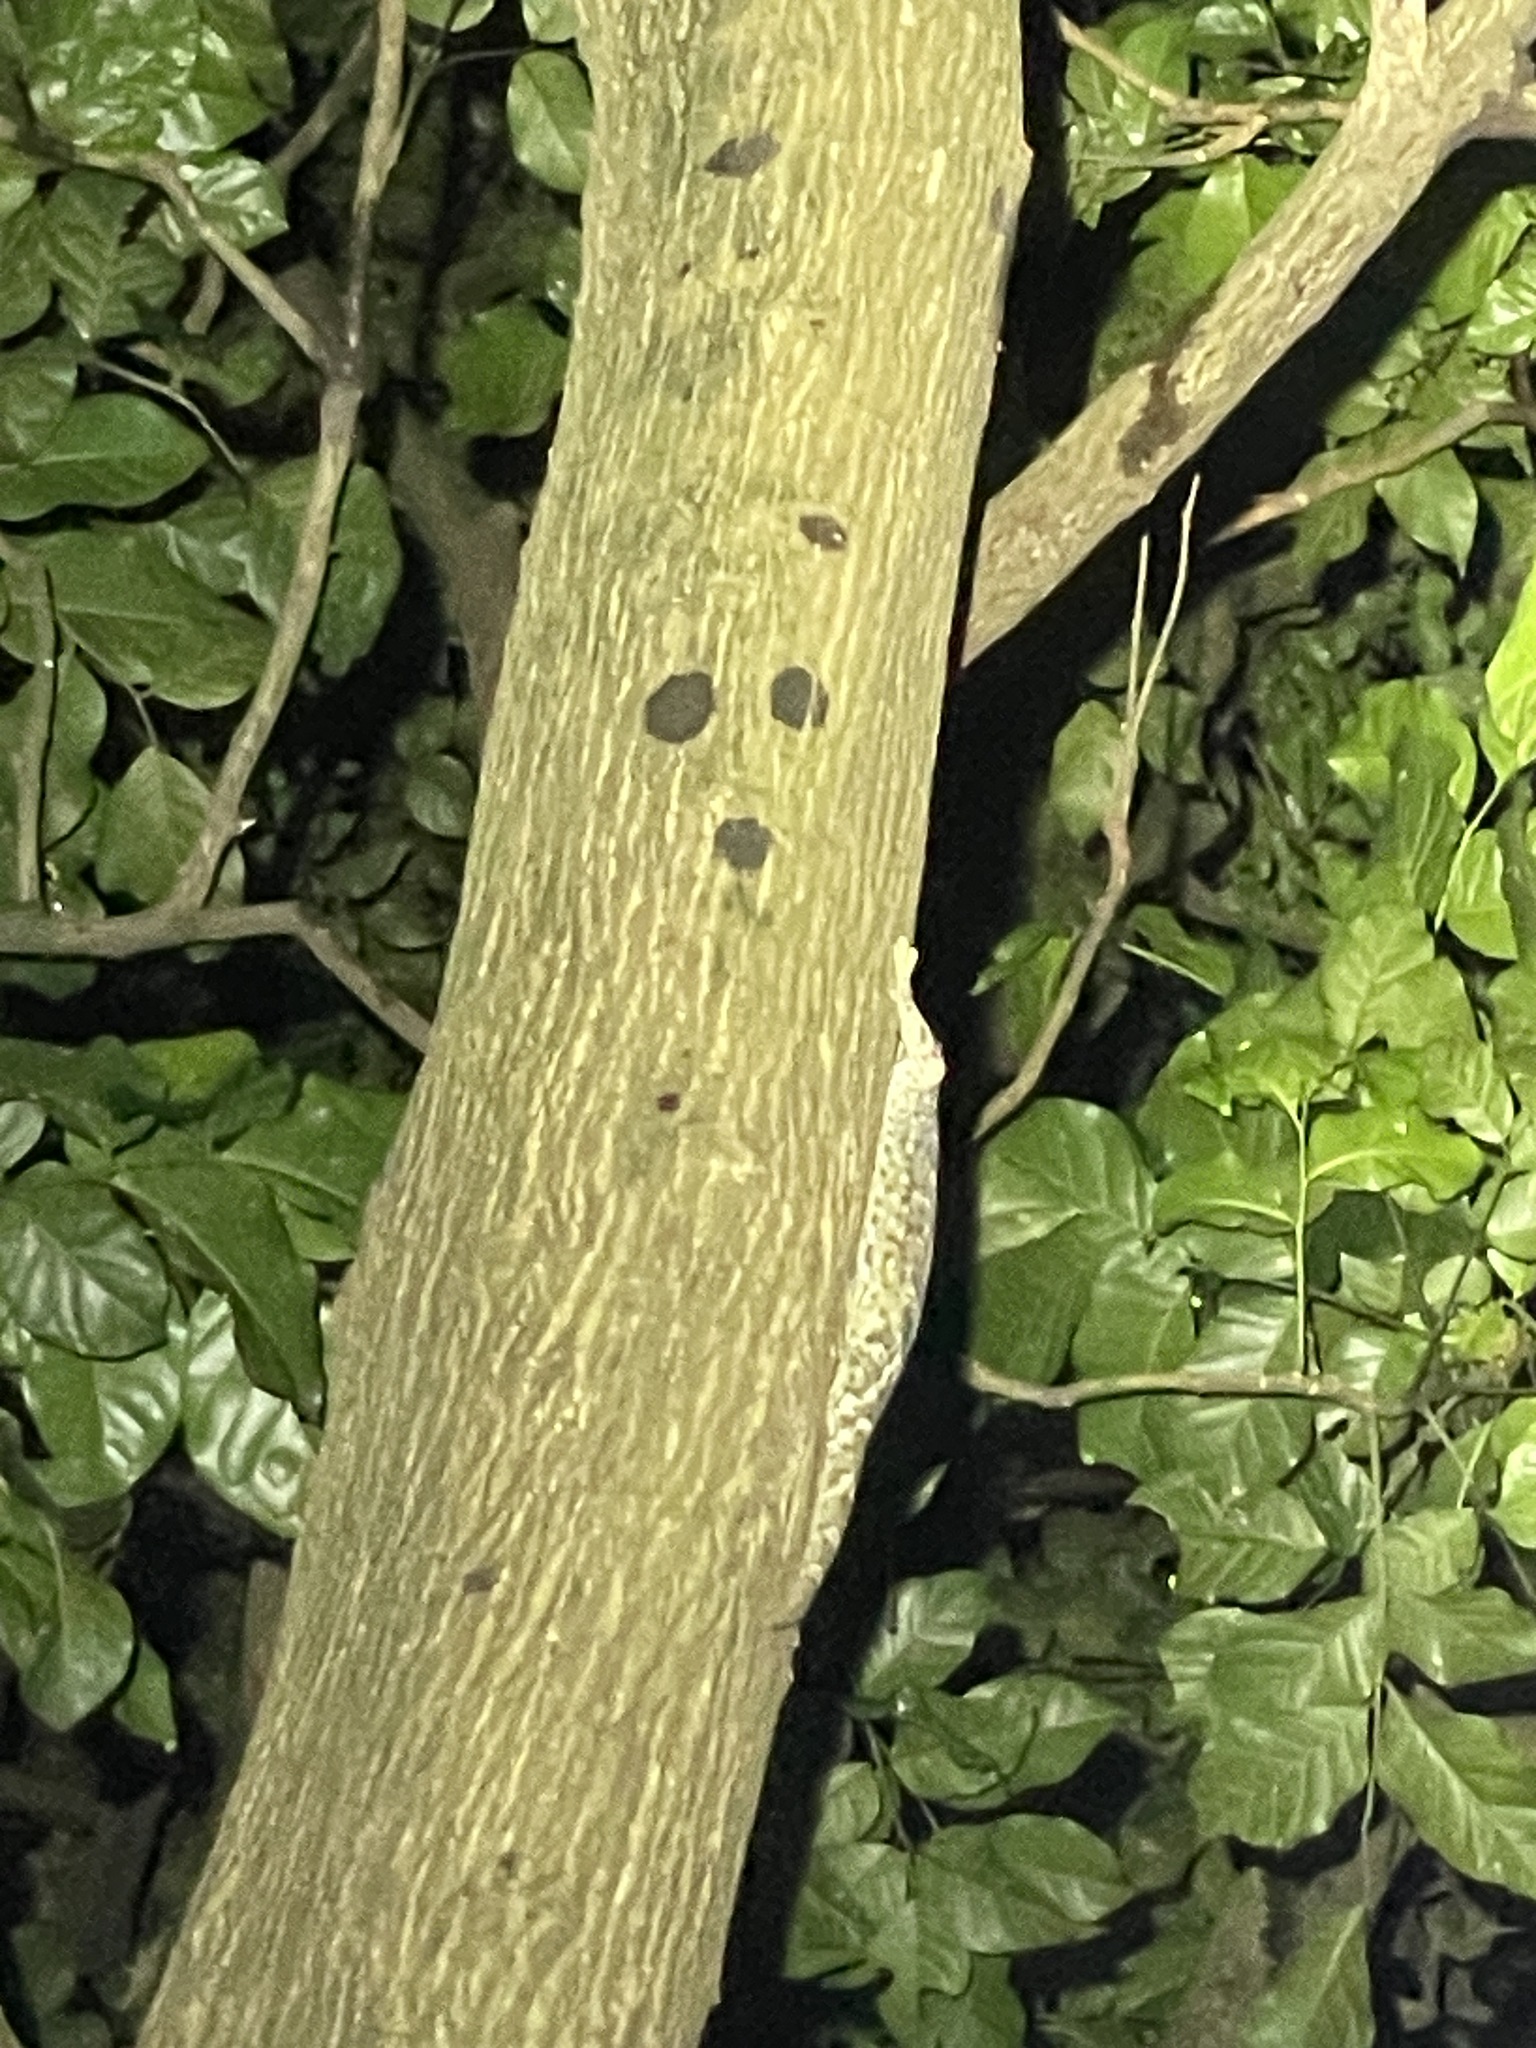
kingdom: Animalia
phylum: Chordata
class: Squamata
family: Gekkonidae
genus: Gekko
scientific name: Gekko reevesii
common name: Reeves’ tokay gecko
